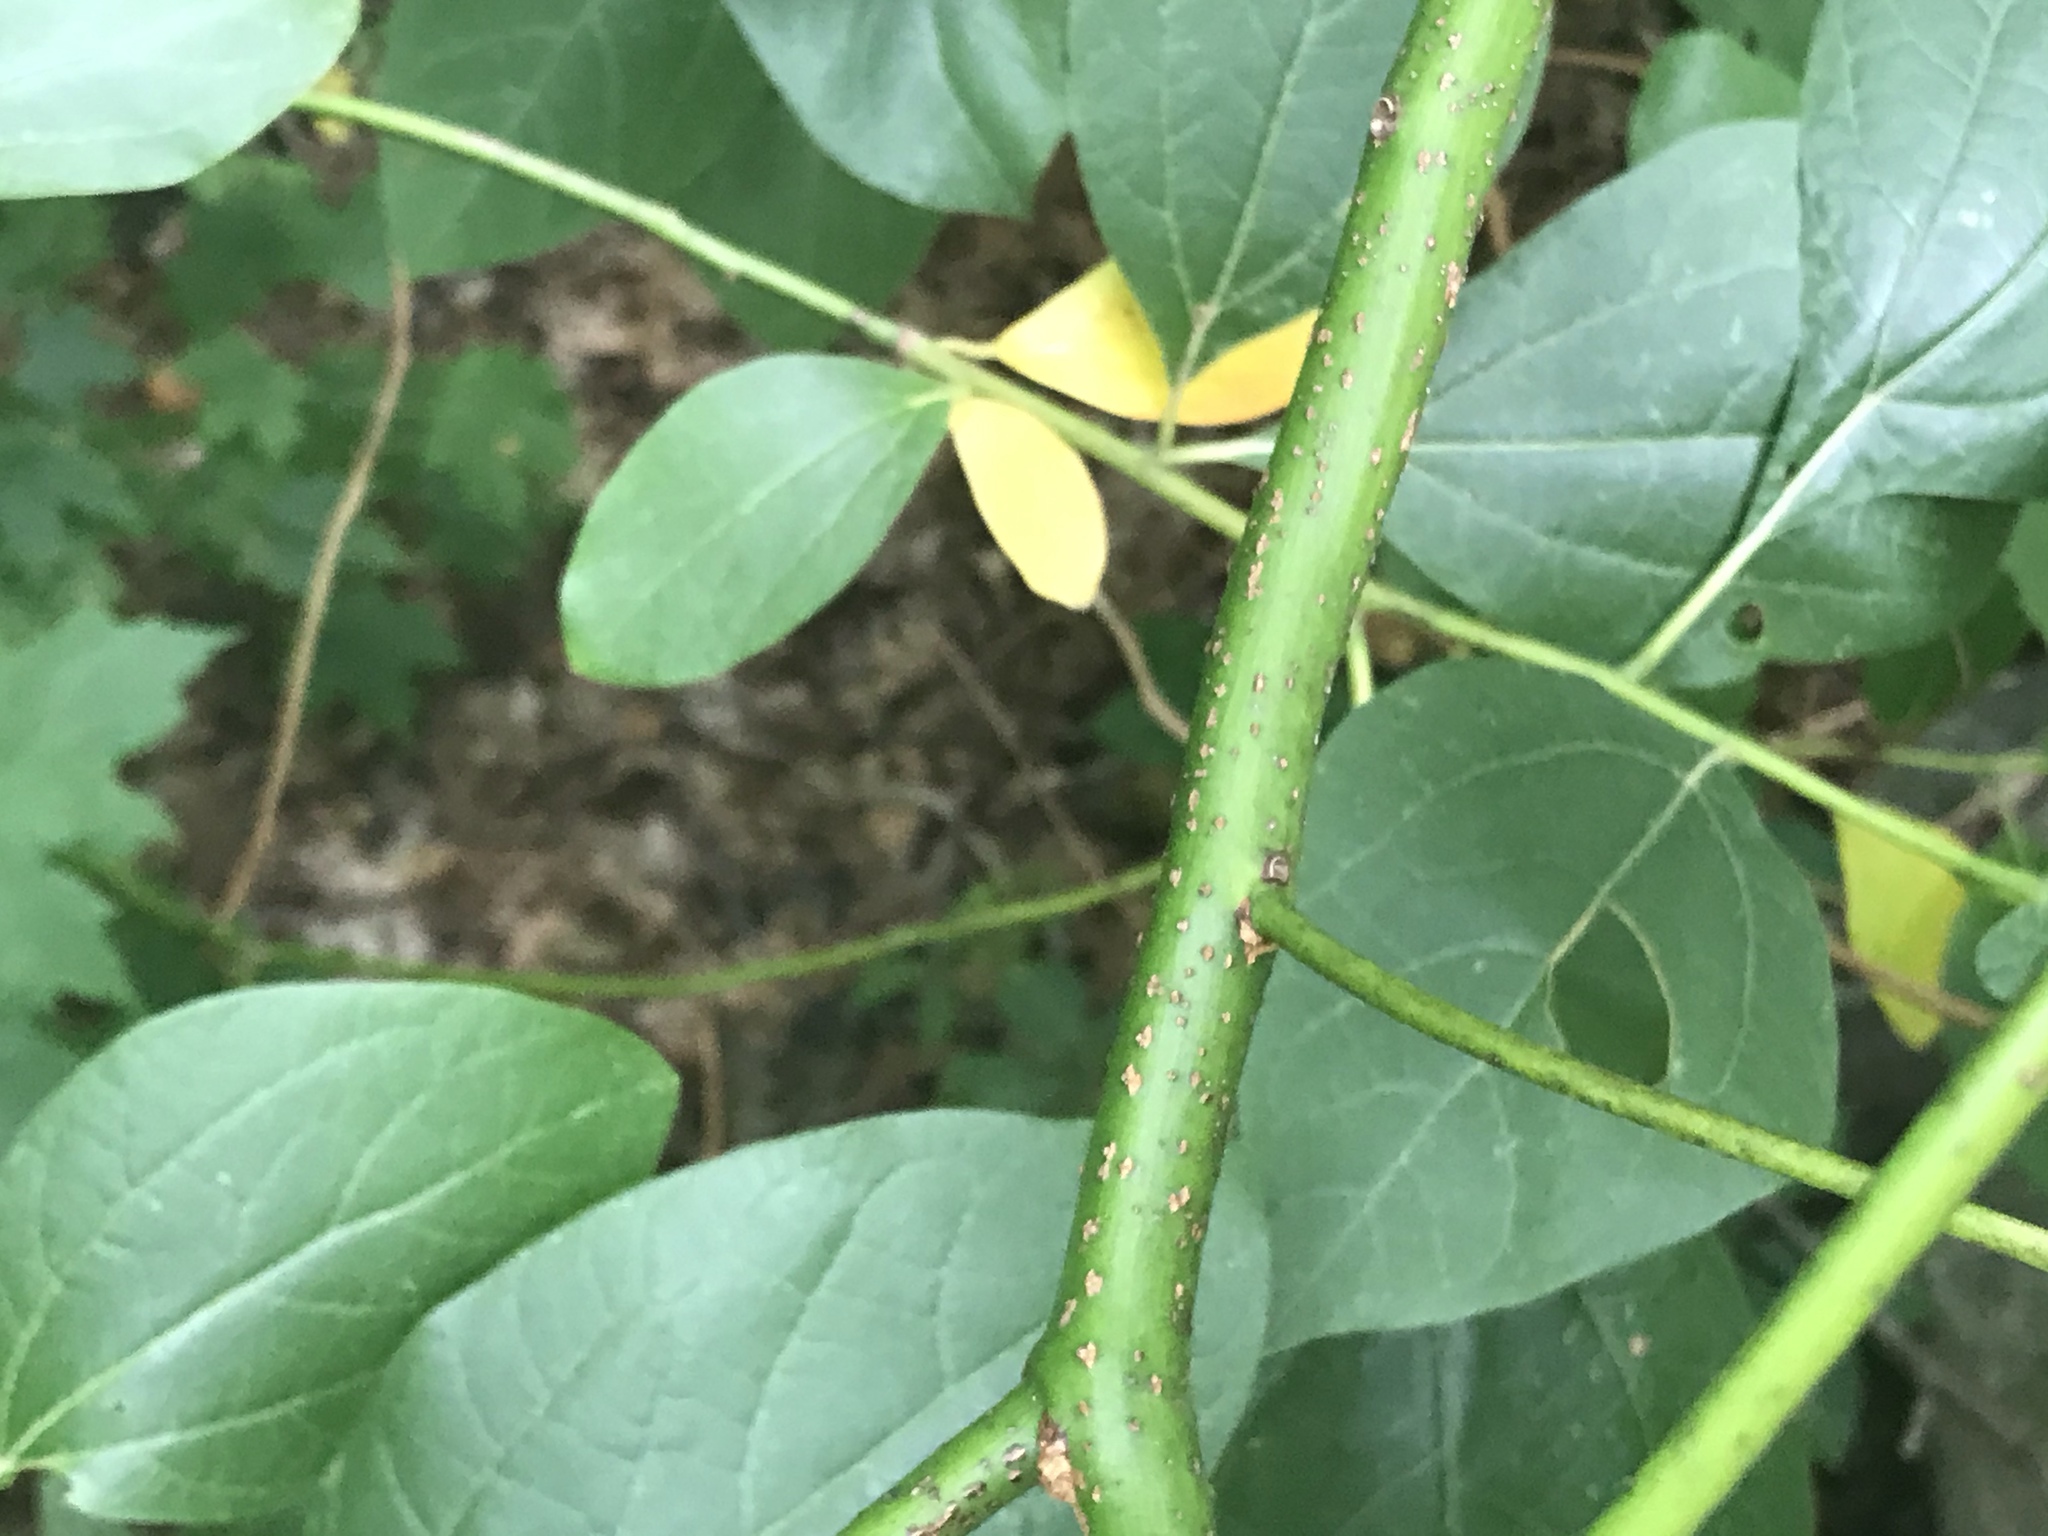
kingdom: Plantae
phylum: Tracheophyta
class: Magnoliopsida
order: Laurales
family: Lauraceae
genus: Sassafras
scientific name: Sassafras albidum
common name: Sassafras
